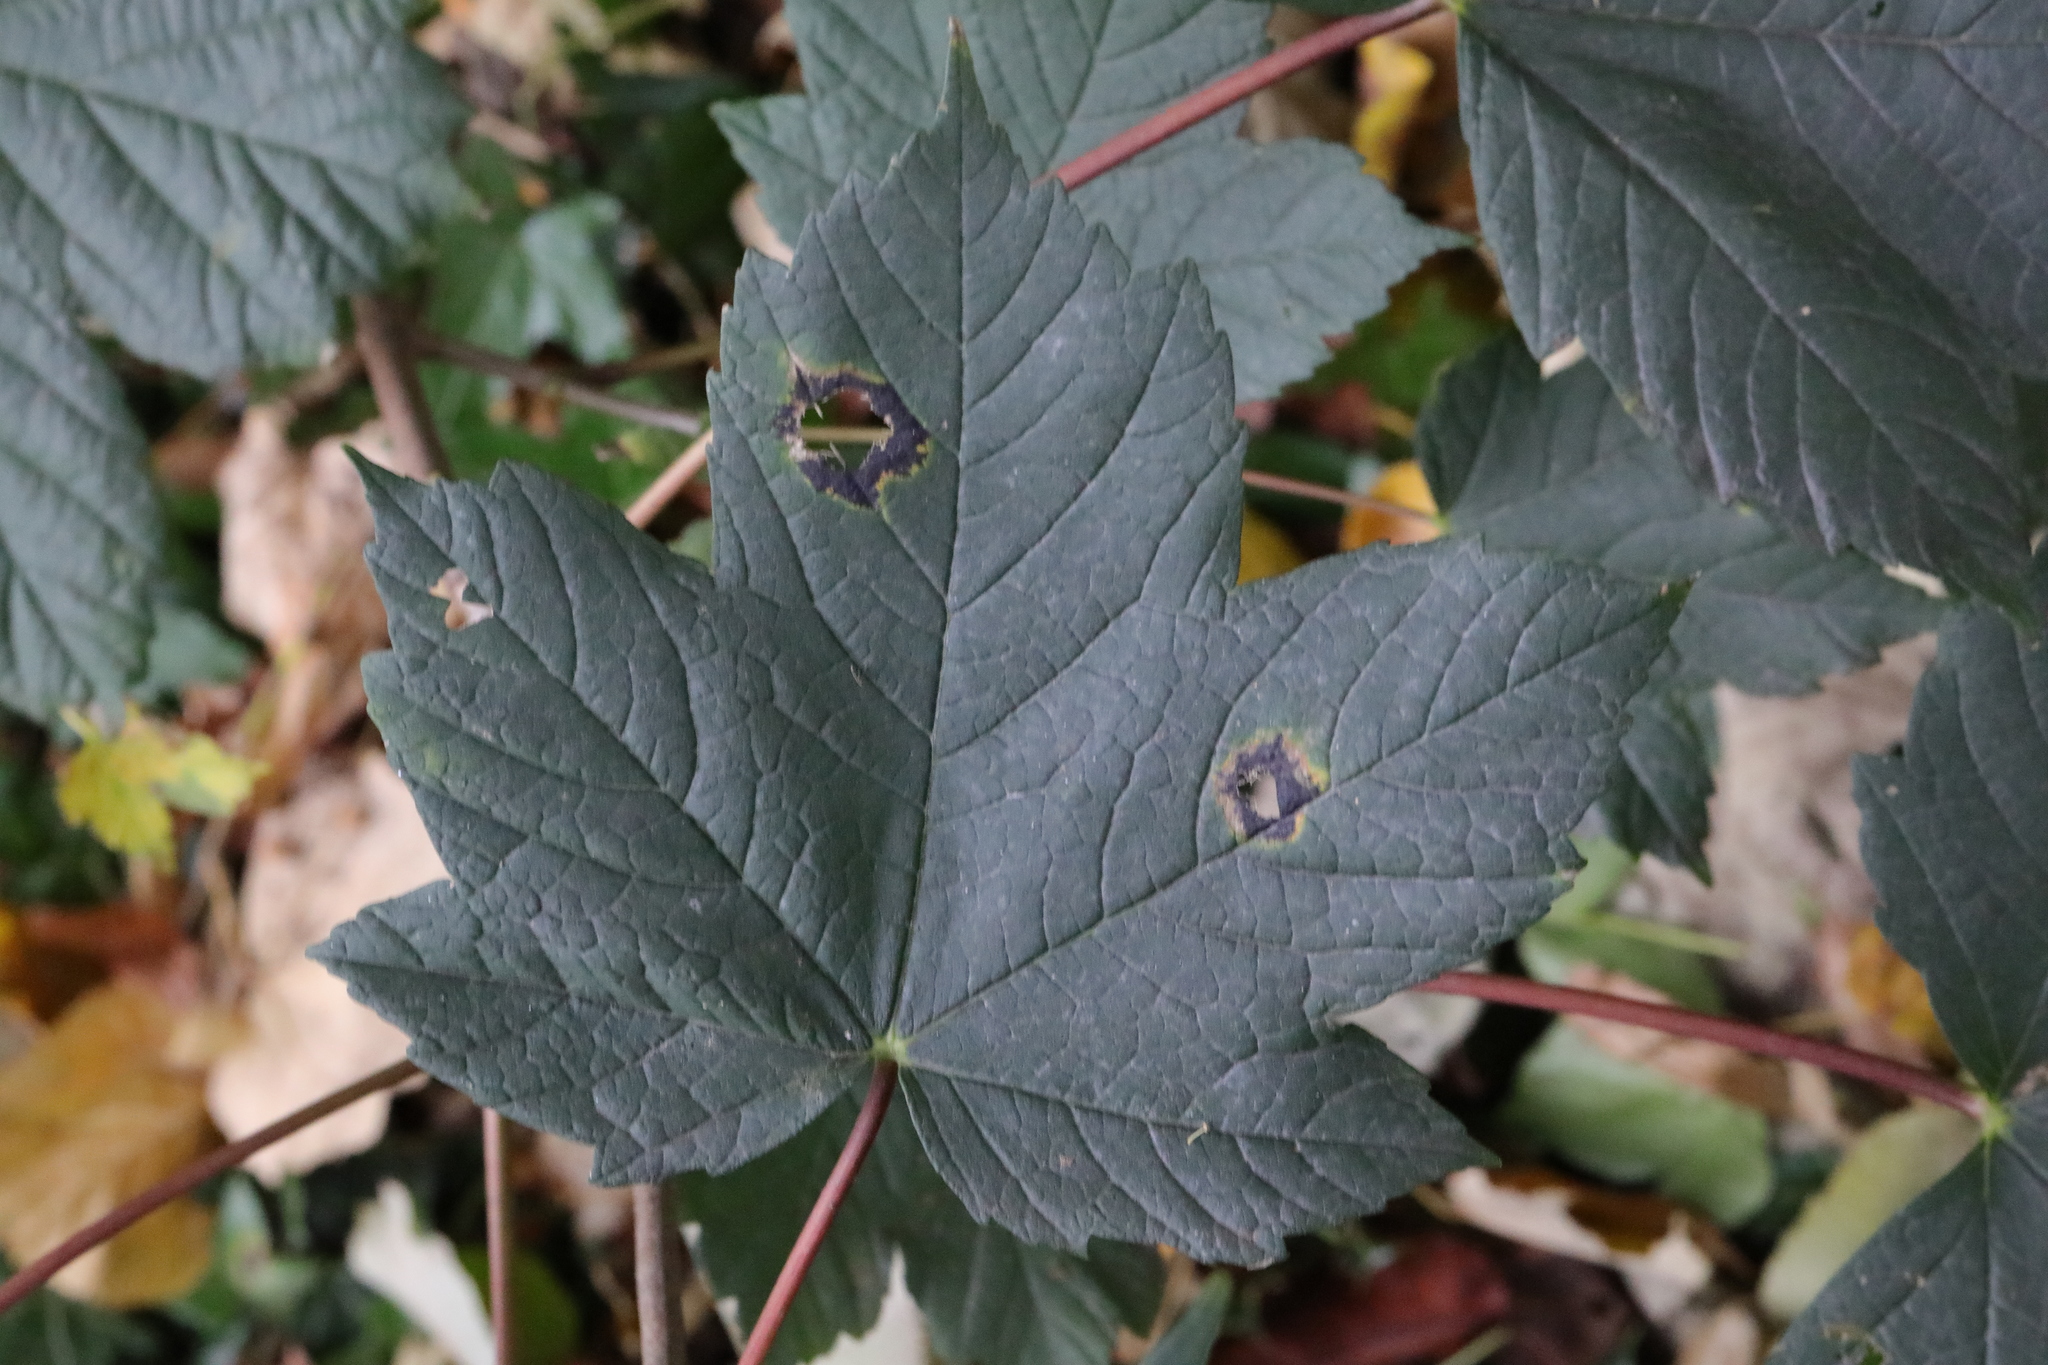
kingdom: Fungi
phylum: Ascomycota
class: Leotiomycetes
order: Rhytismatales
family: Rhytismataceae
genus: Rhytisma
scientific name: Rhytisma acerinum
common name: European tar spot
